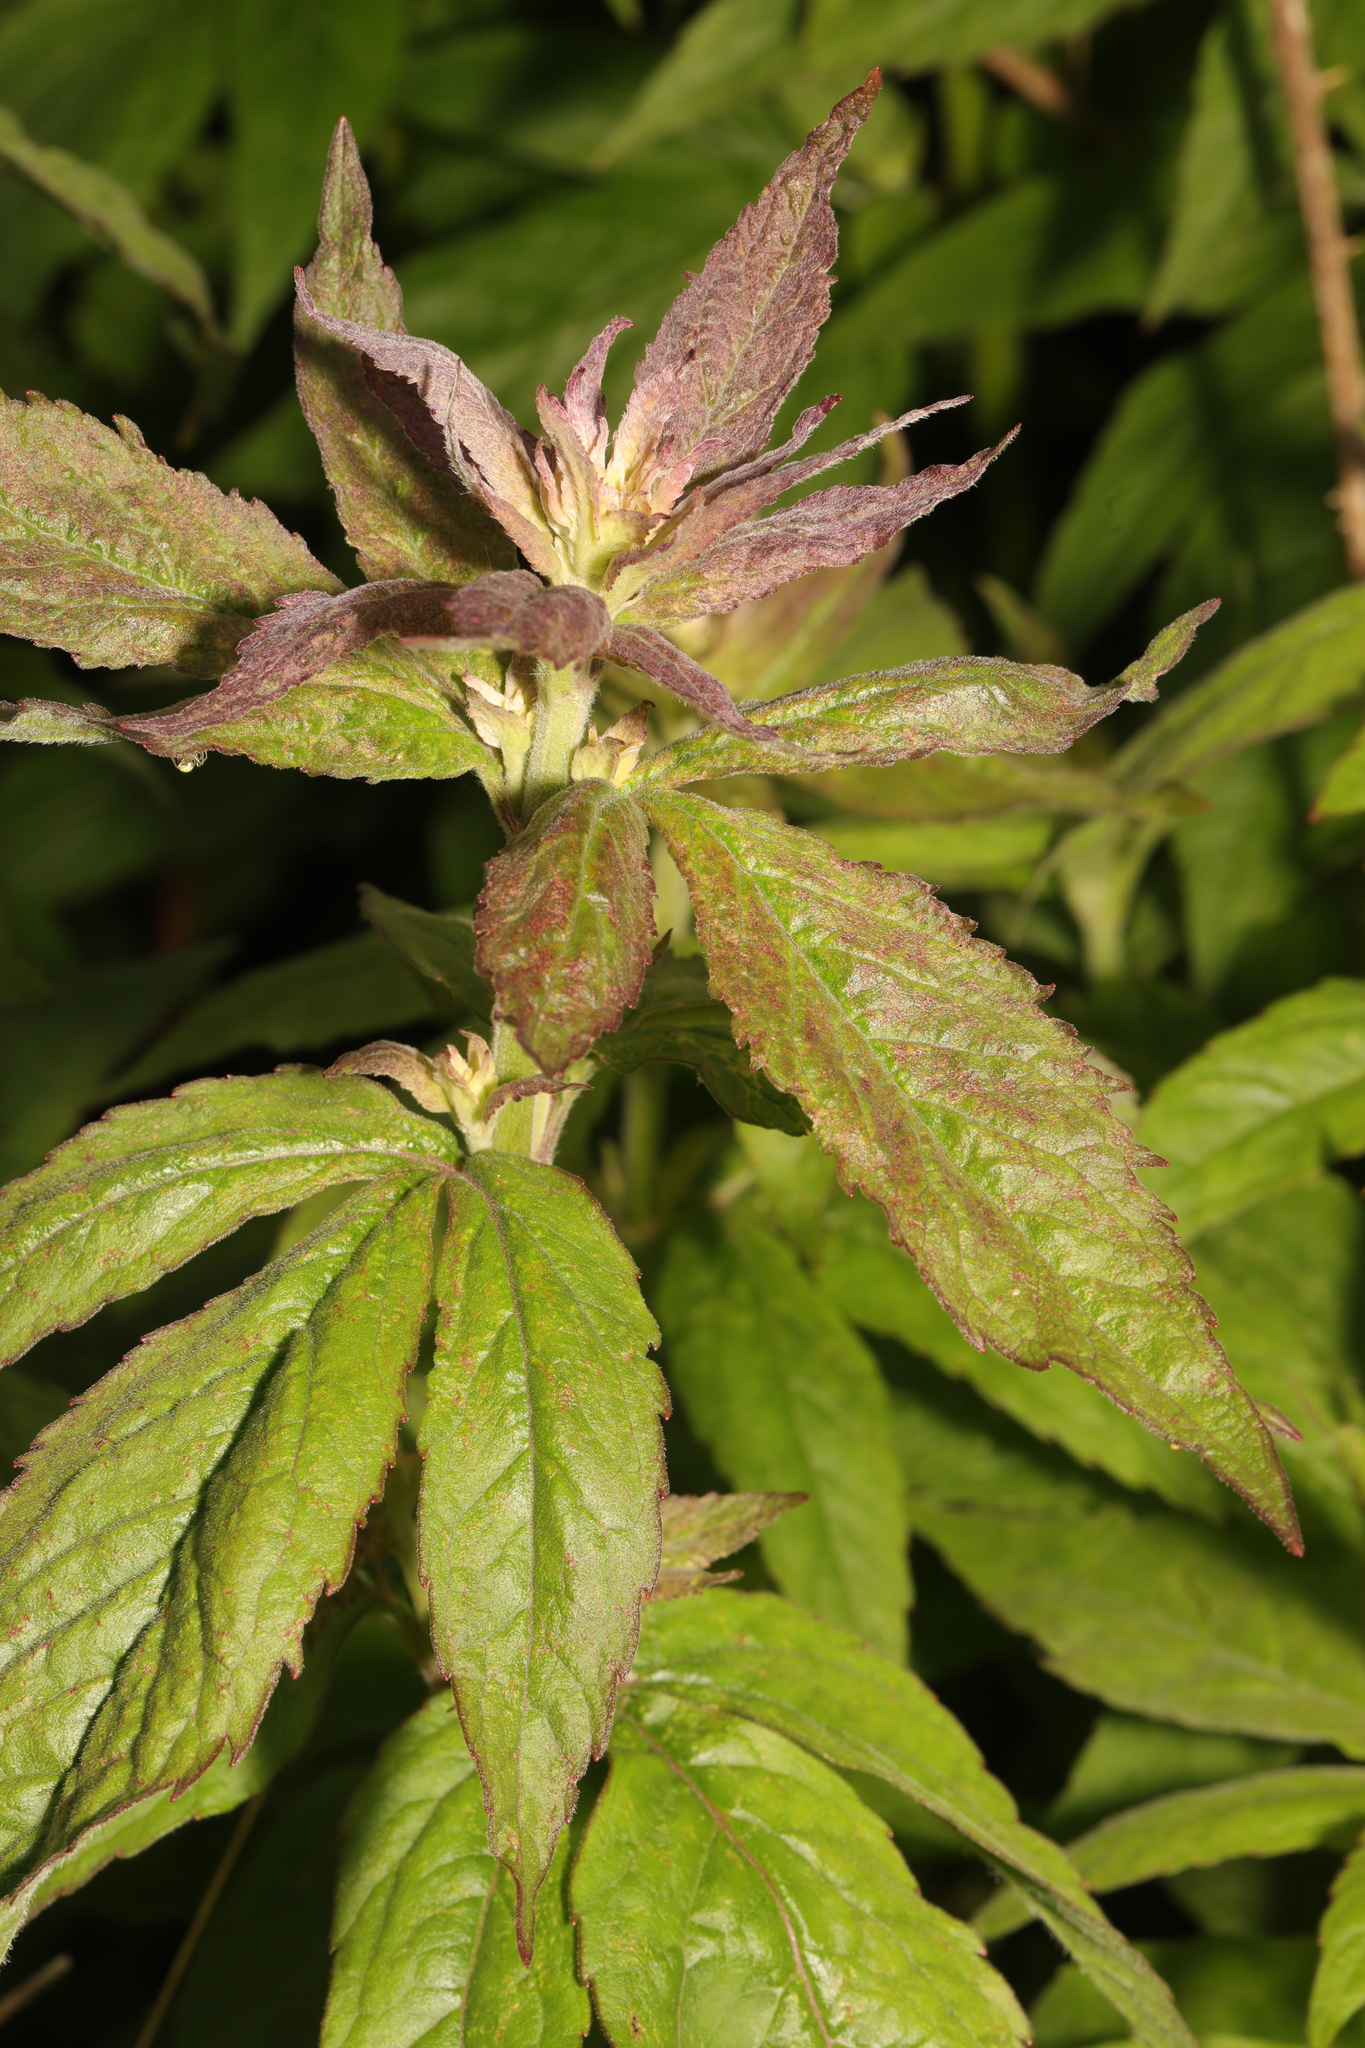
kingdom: Plantae
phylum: Tracheophyta
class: Magnoliopsida
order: Asterales
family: Asteraceae
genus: Eupatorium
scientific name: Eupatorium cannabinum
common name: Hemp-agrimony
